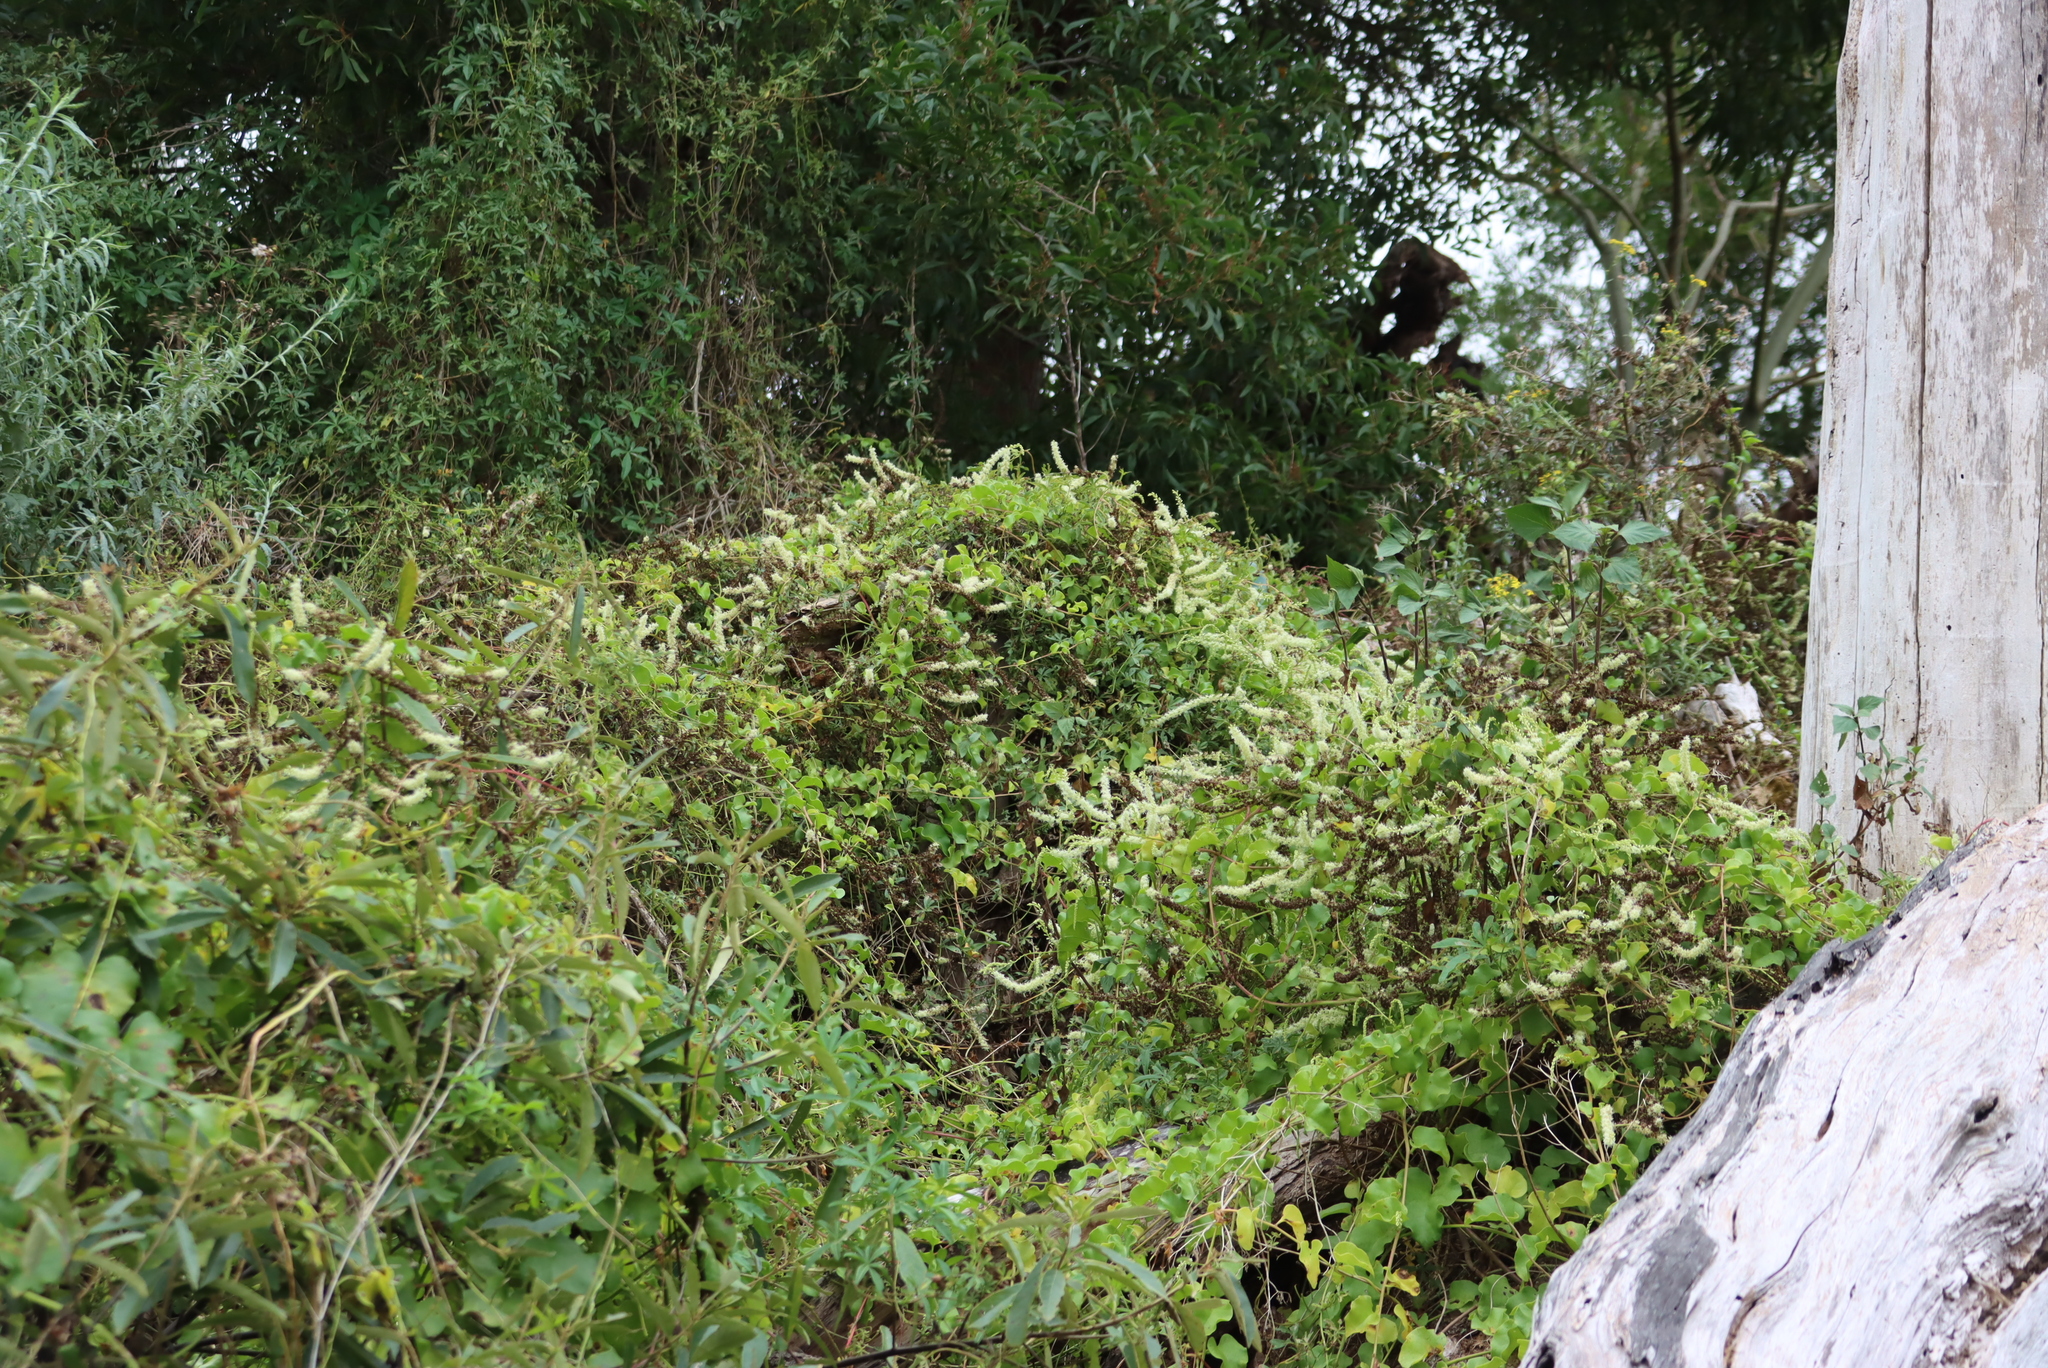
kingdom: Plantae
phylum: Tracheophyta
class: Magnoliopsida
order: Caryophyllales
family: Basellaceae
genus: Anredera
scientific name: Anredera cordifolia
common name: Heartleaf madeiravine
